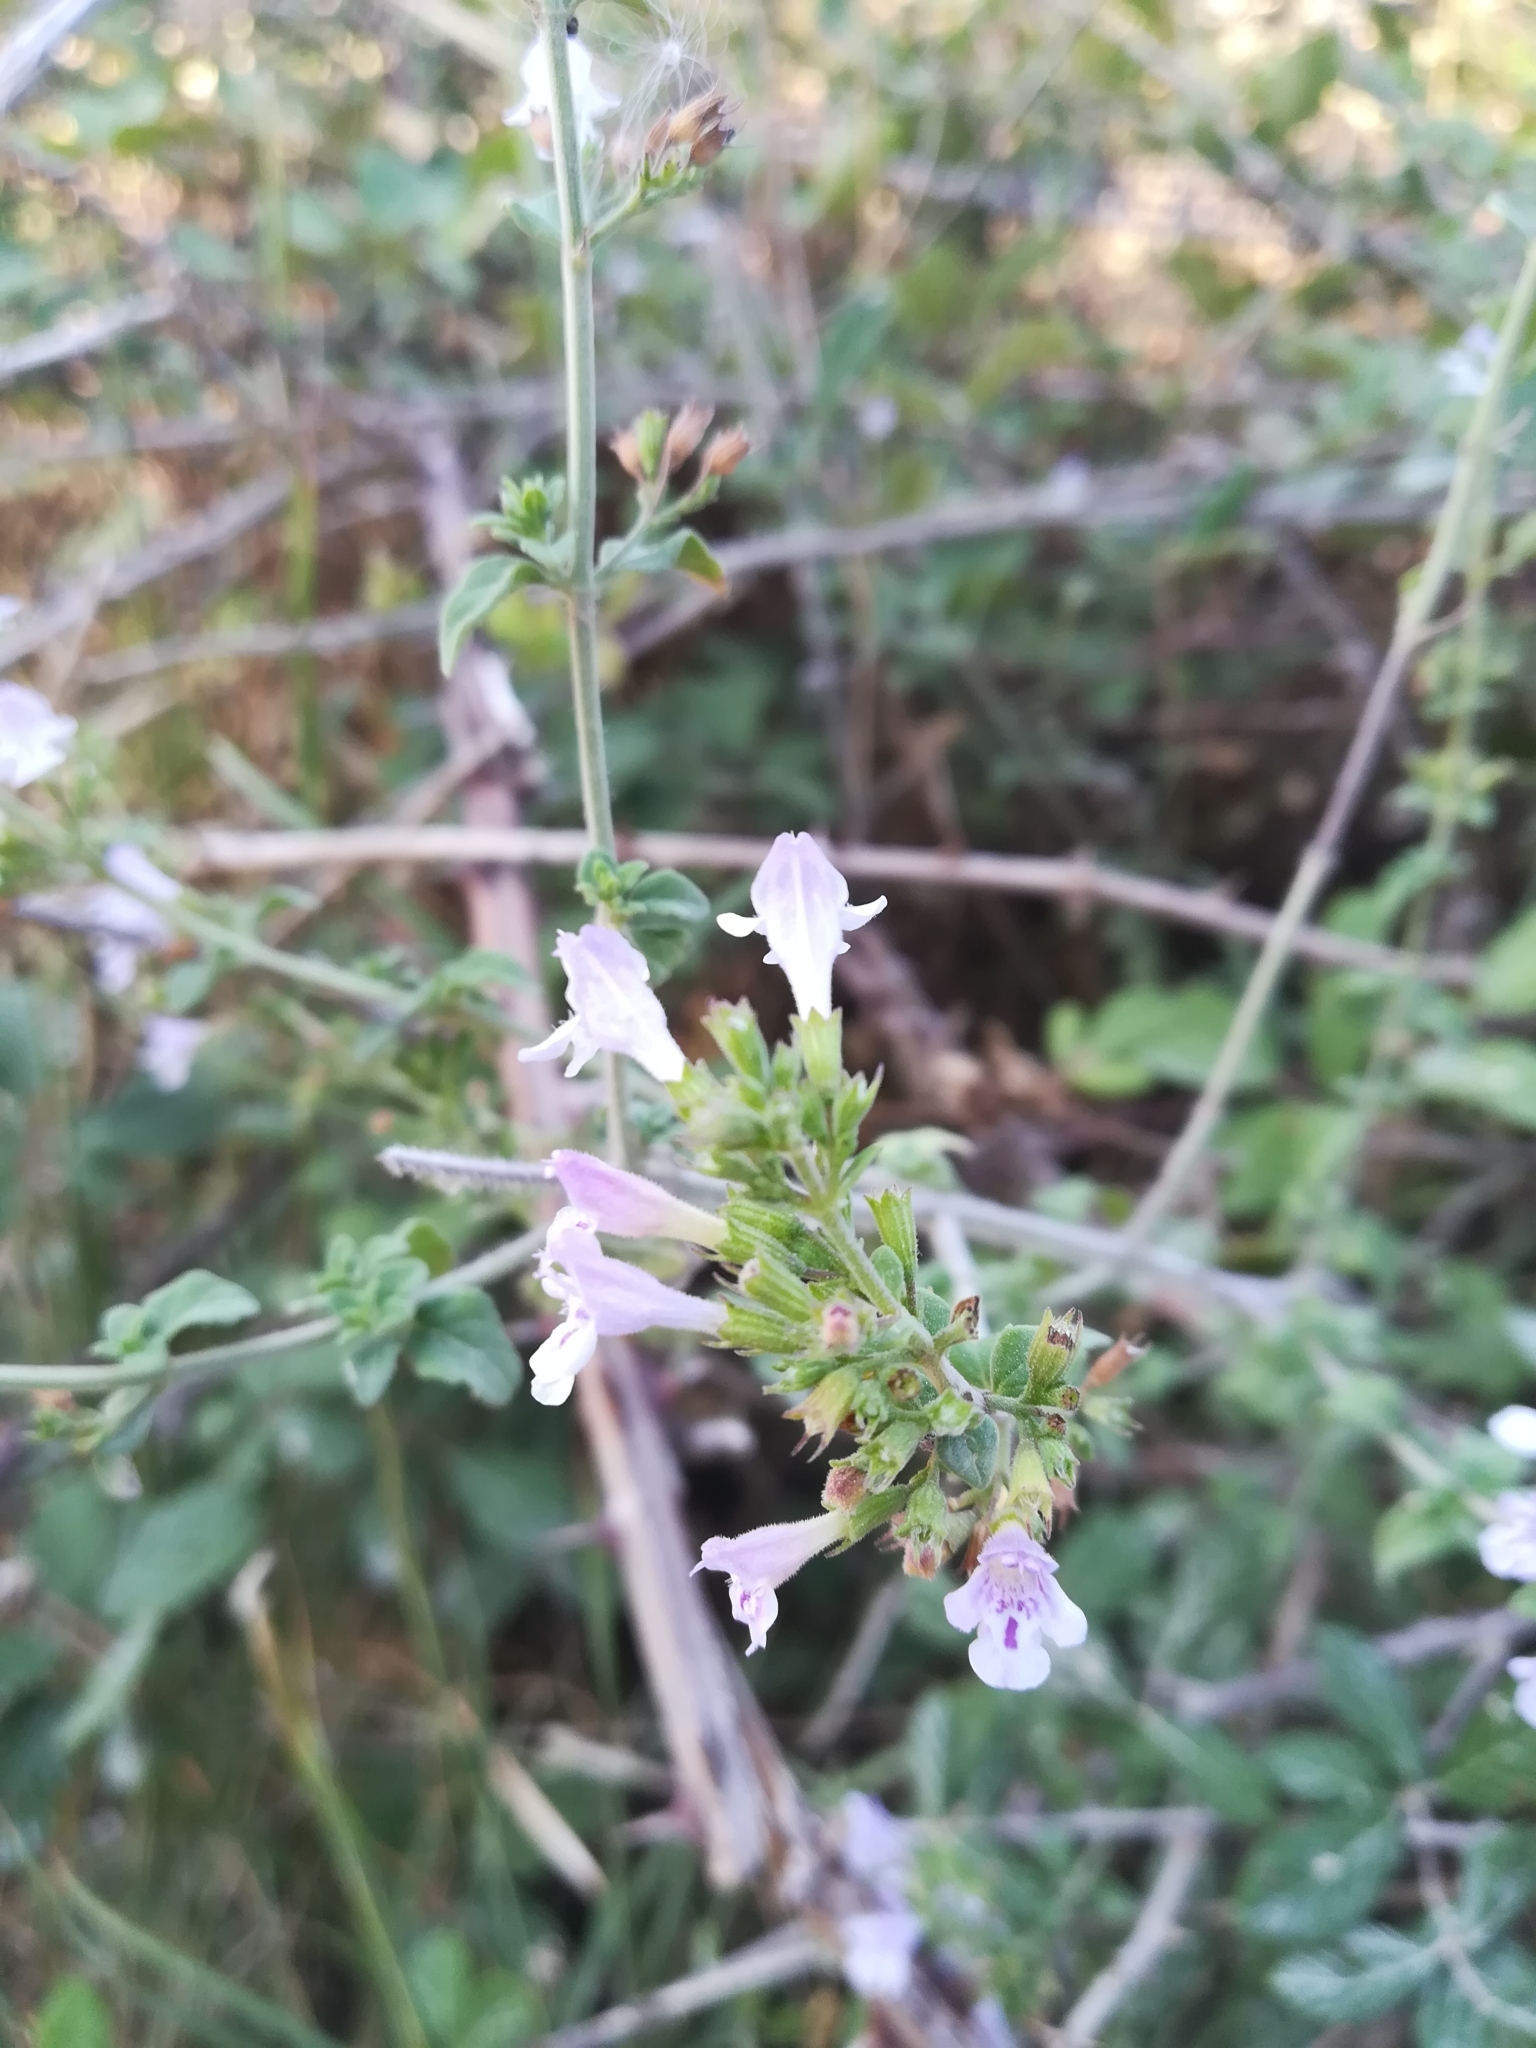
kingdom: Plantae
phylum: Tracheophyta
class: Magnoliopsida
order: Lamiales
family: Lamiaceae
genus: Clinopodium
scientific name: Clinopodium nepeta
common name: Lesser calamint
